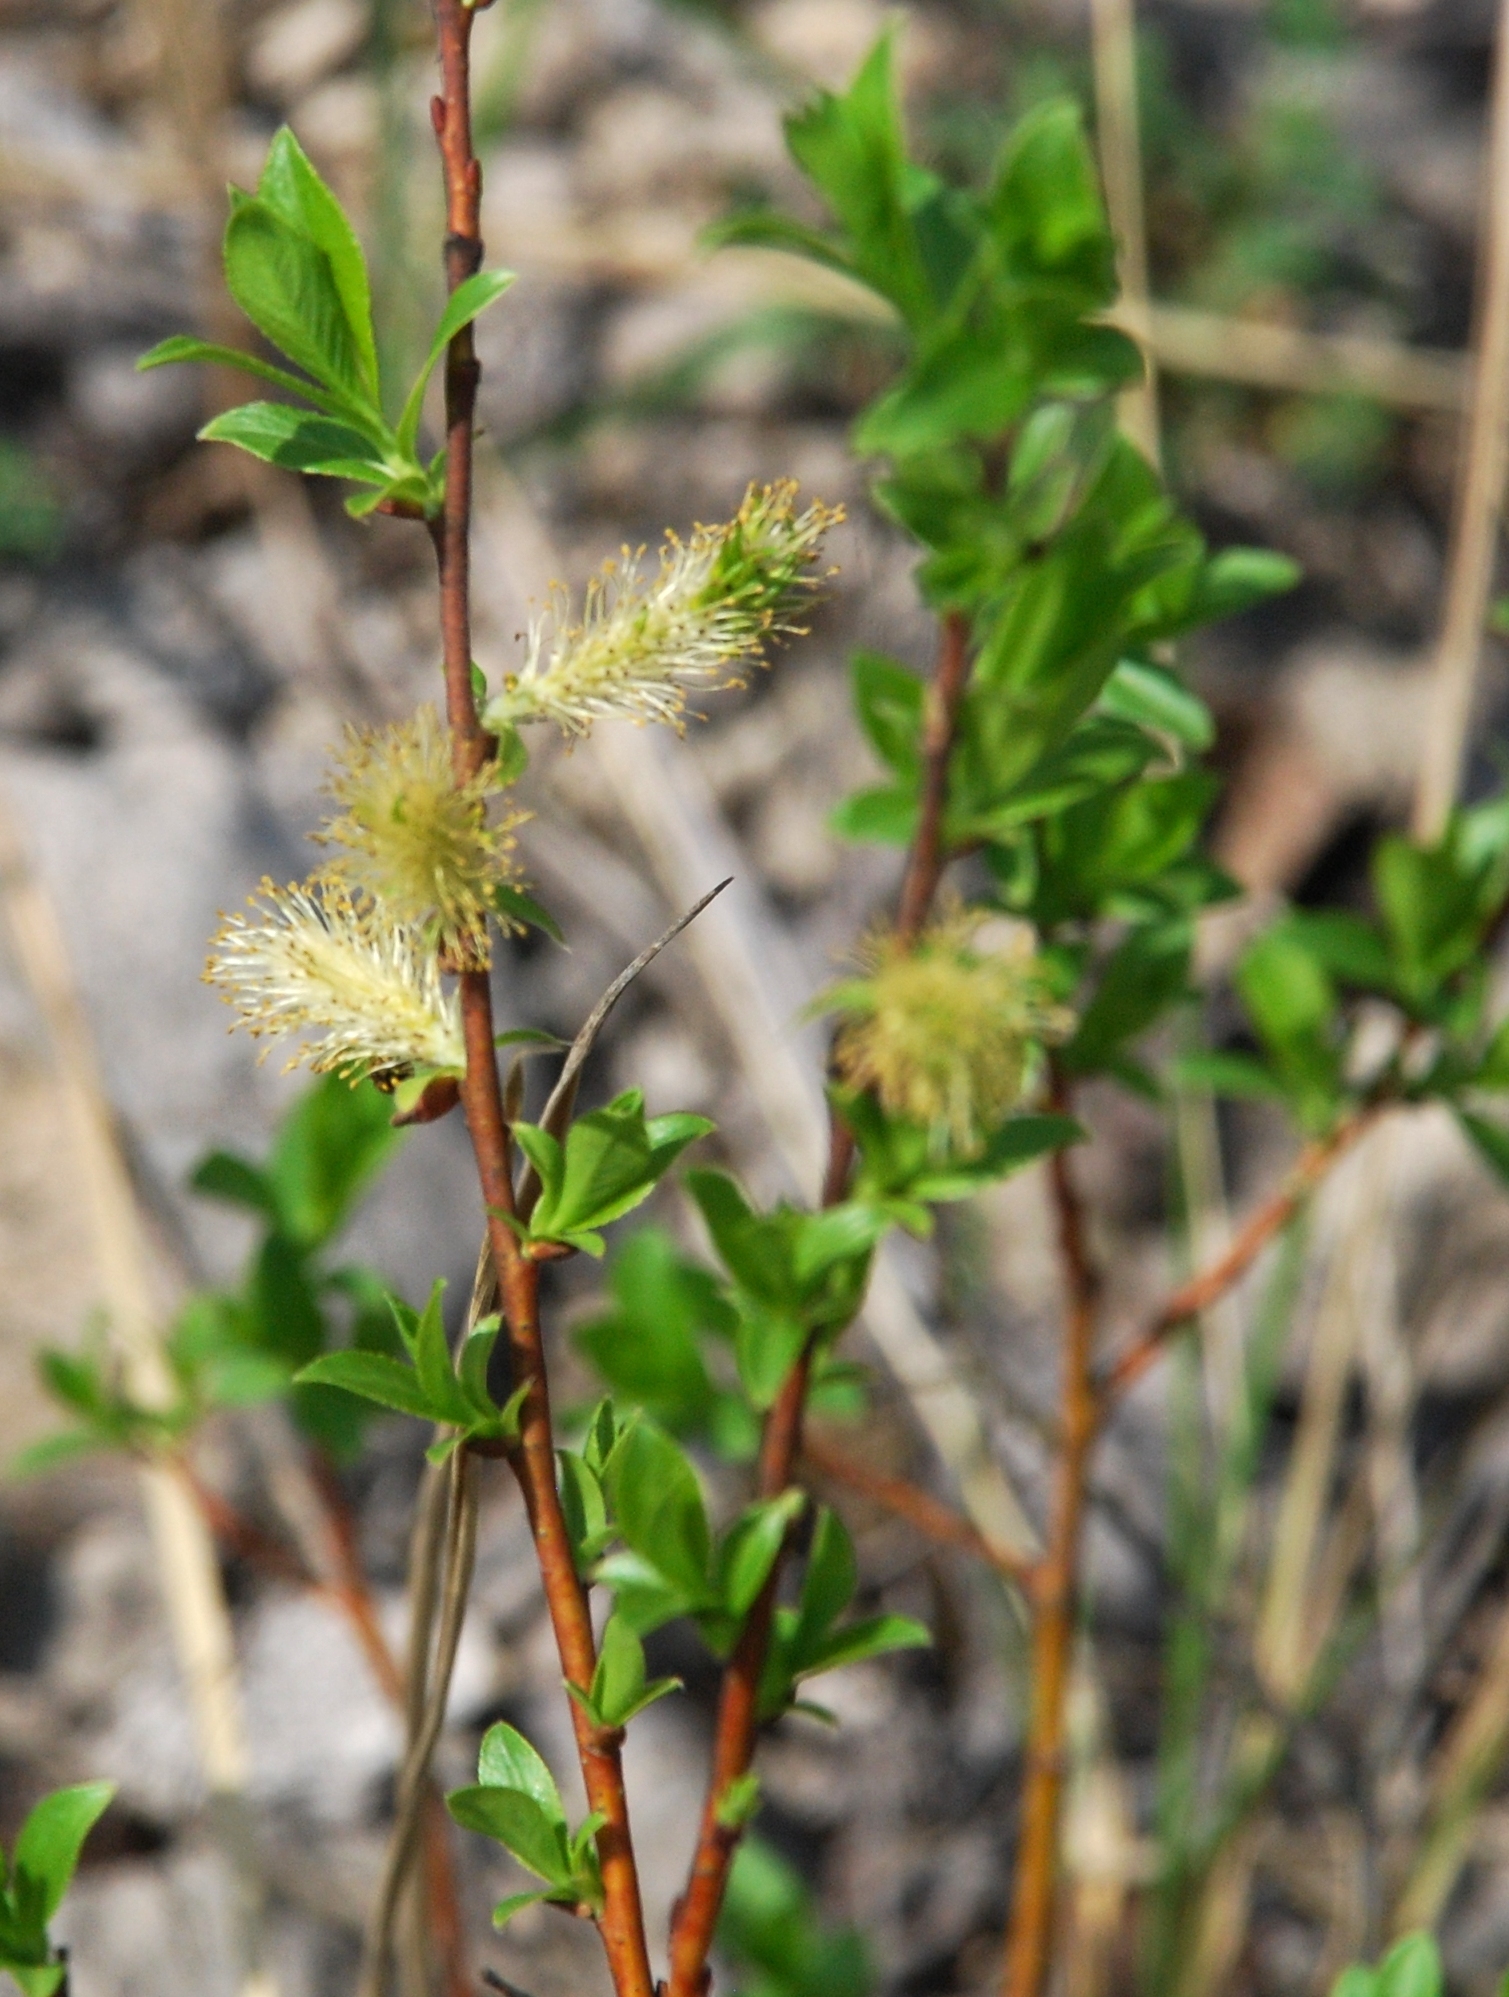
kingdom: Plantae
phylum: Tracheophyta
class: Magnoliopsida
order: Malpighiales
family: Salicaceae
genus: Salix
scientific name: Salix myrsinifolia
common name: Dark-leaved willow
